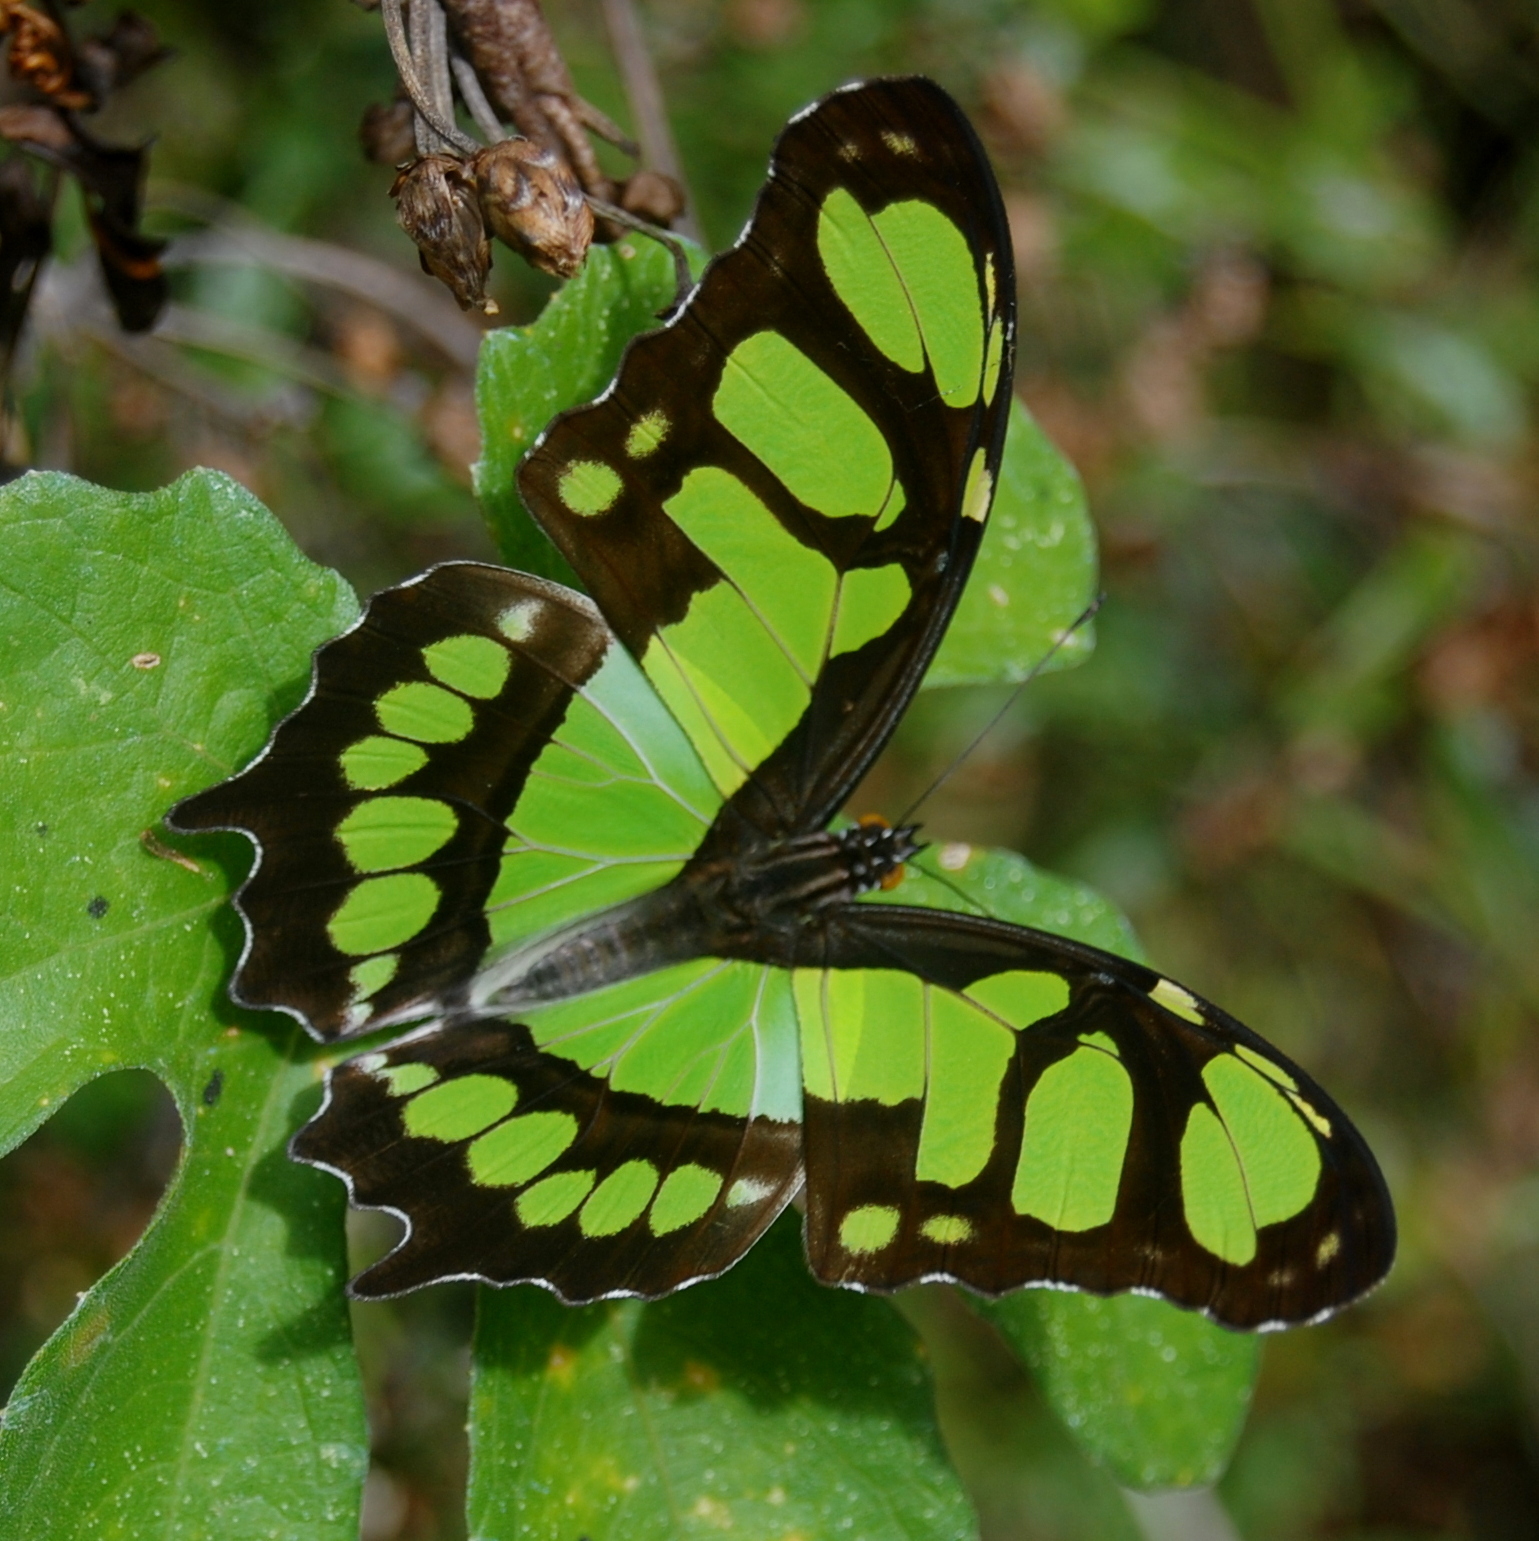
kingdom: Animalia
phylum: Arthropoda
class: Insecta
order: Lepidoptera
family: Nymphalidae
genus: Siproeta
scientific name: Siproeta stelenes
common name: Malachite
